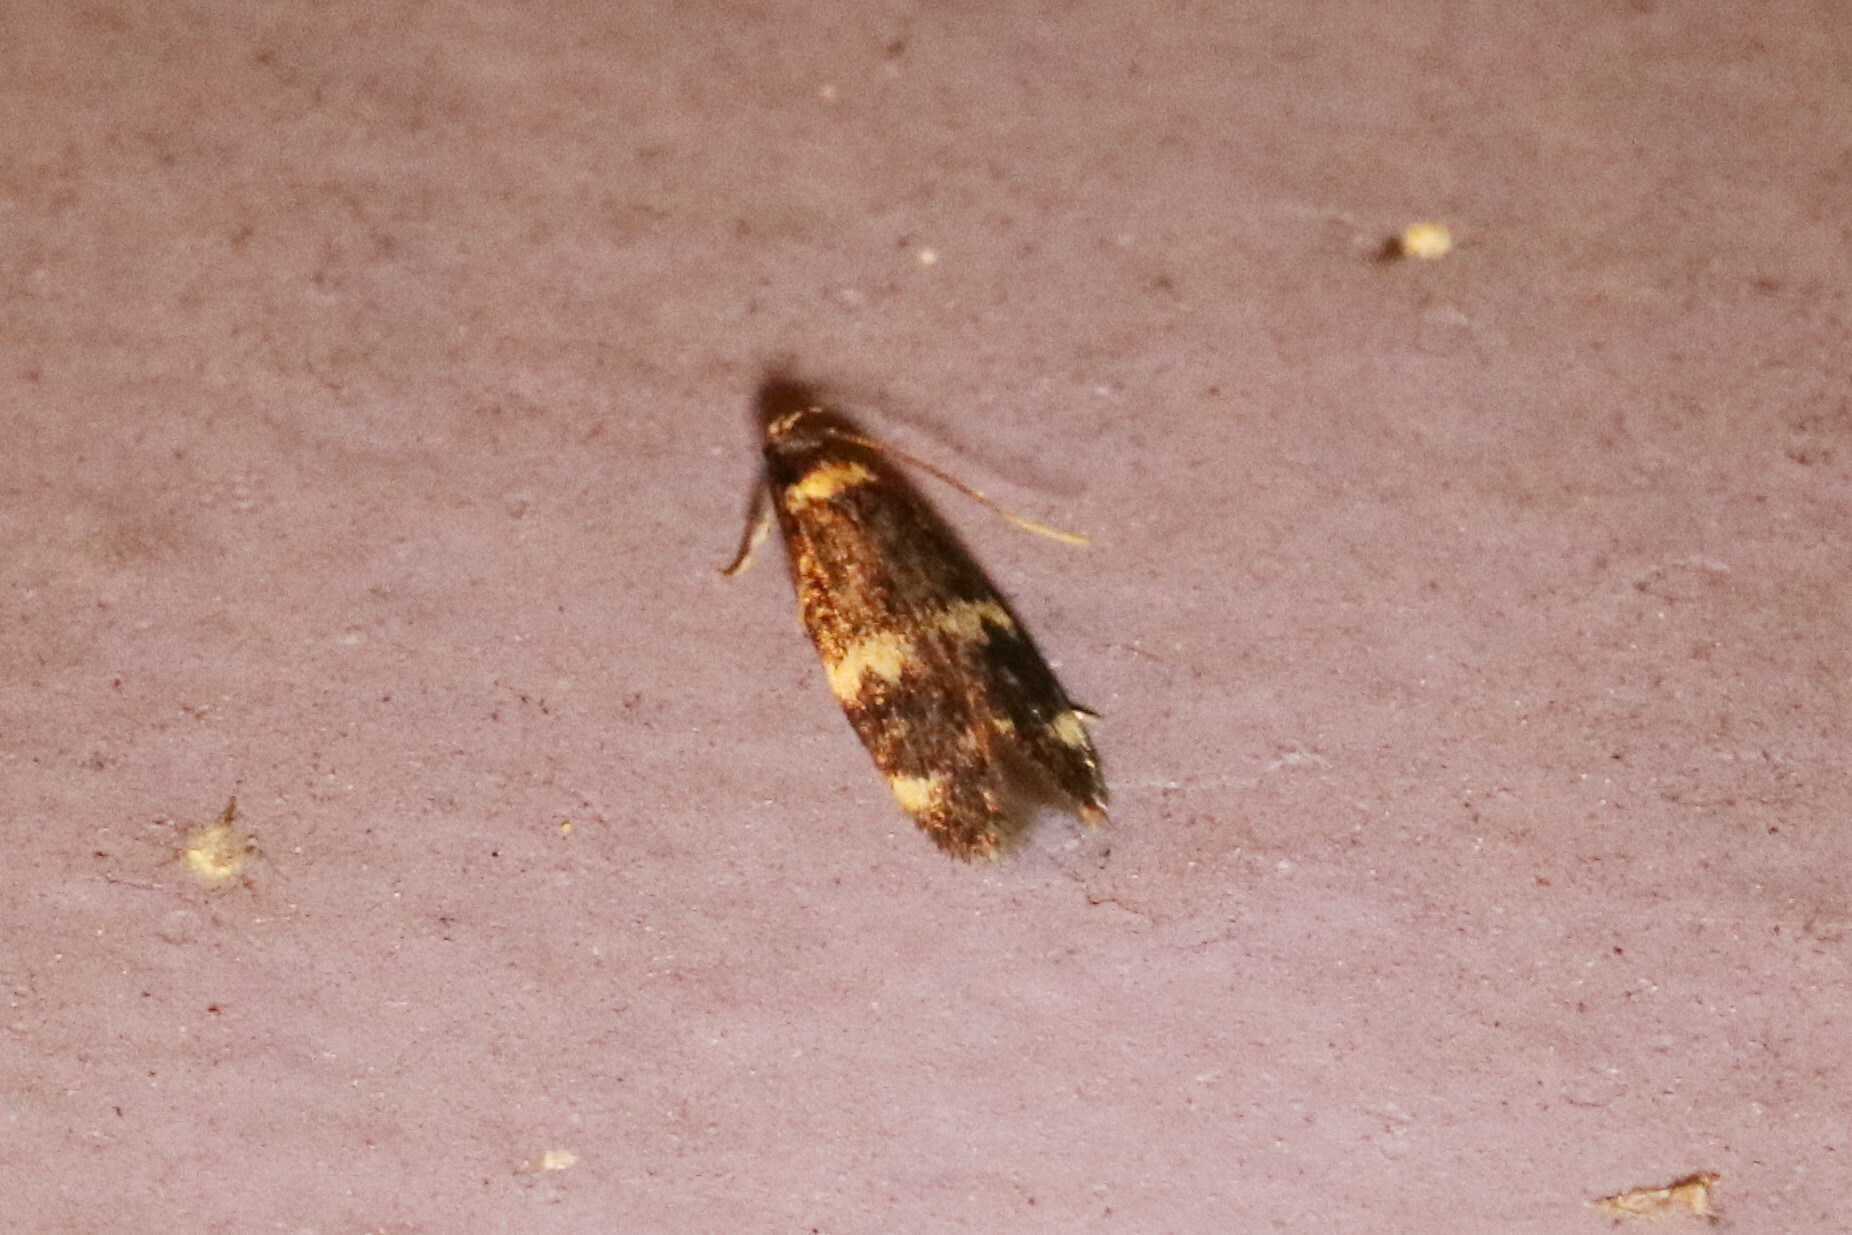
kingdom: Animalia
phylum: Arthropoda
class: Insecta
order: Lepidoptera
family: Autostichidae
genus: Oegoconia
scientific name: Oegoconia quadripuncta
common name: Four-spotted obscure
